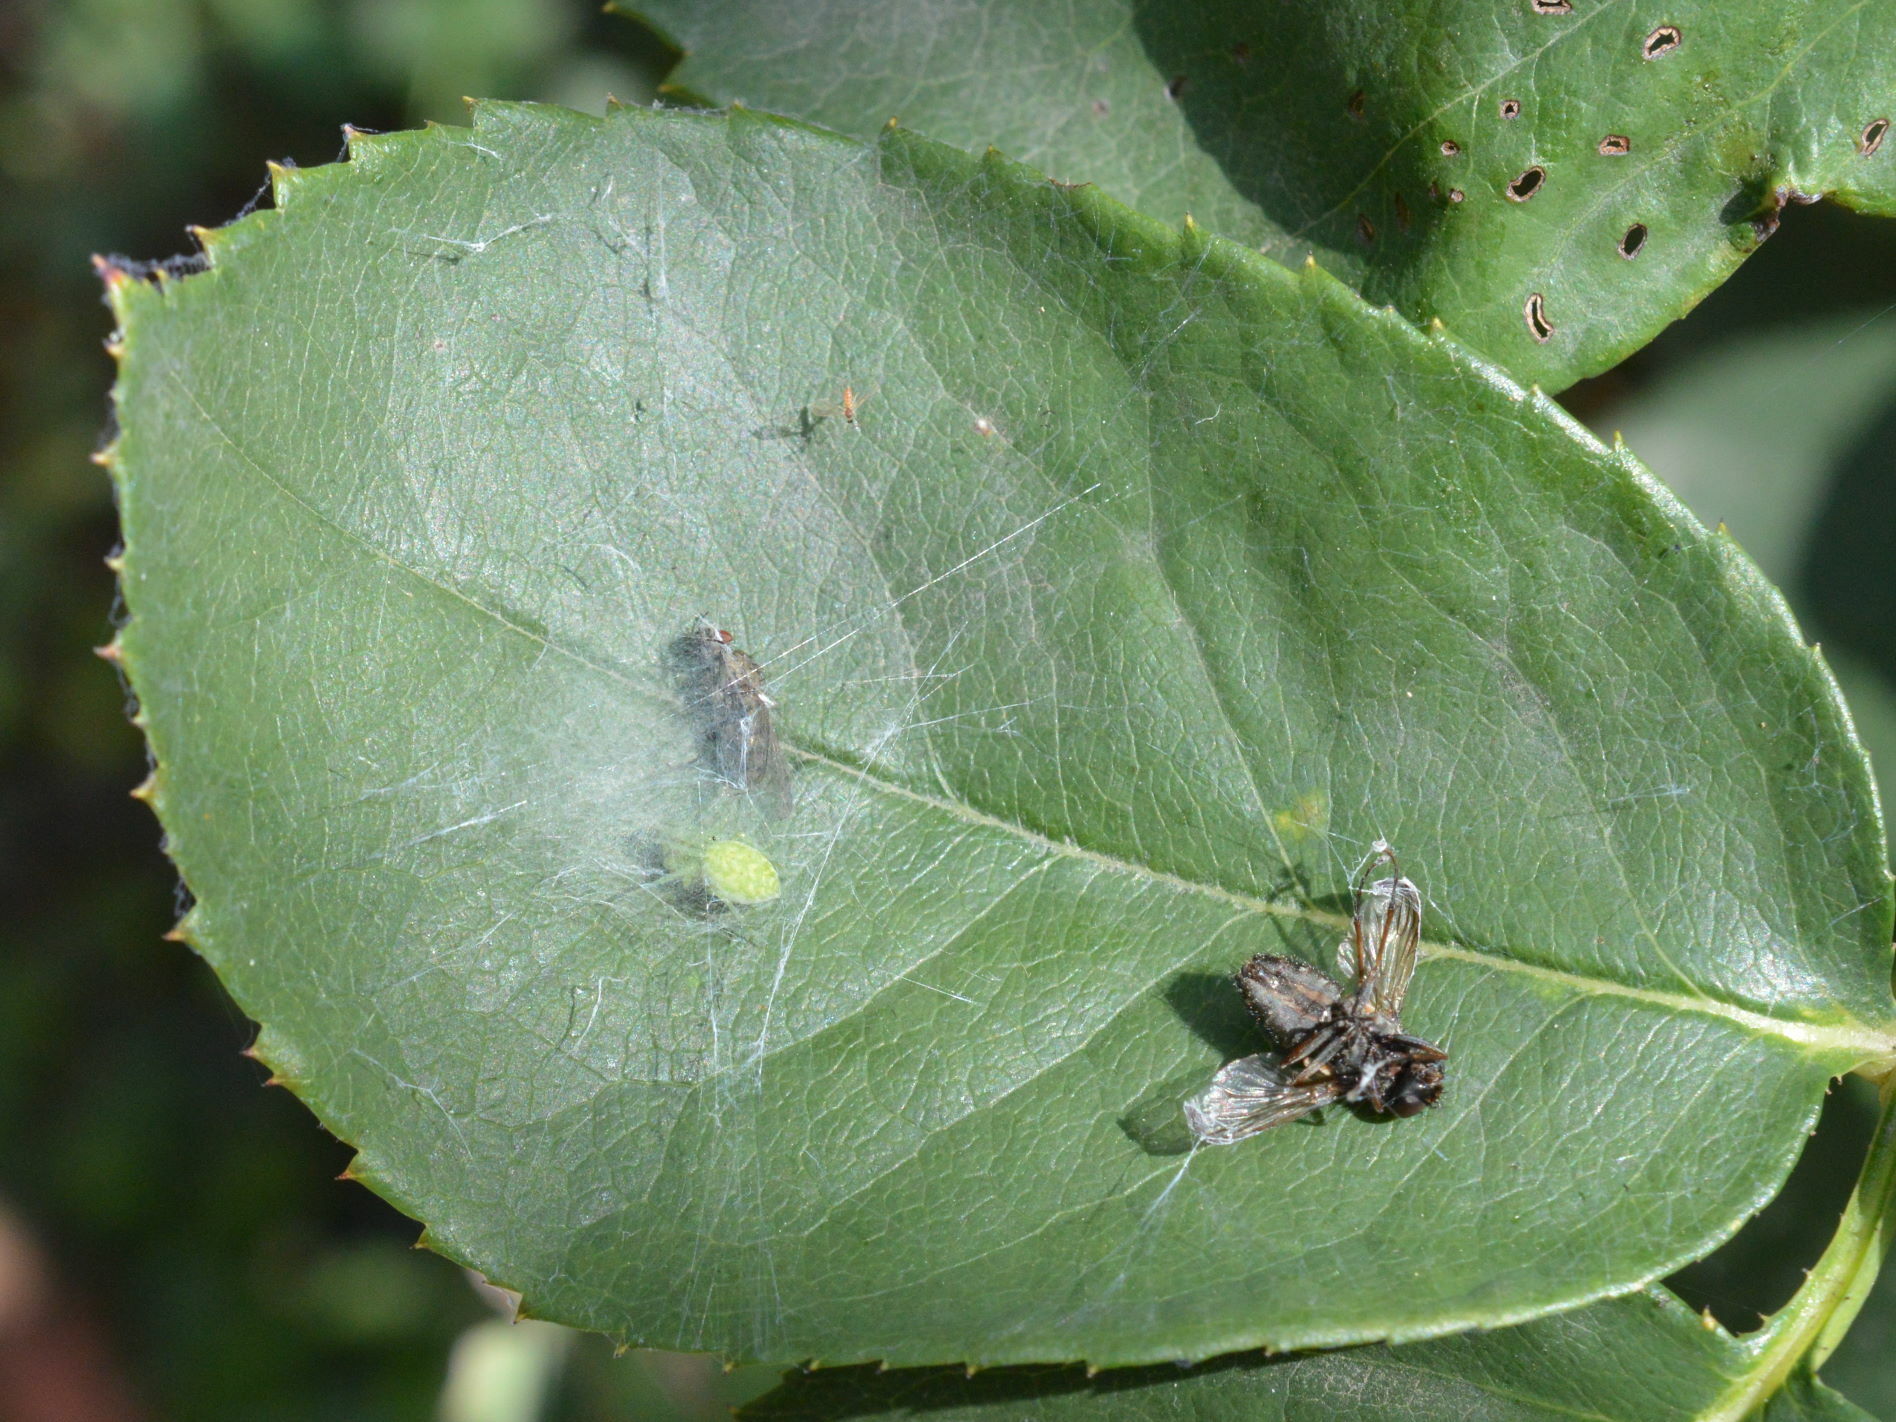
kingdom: Animalia
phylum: Arthropoda
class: Arachnida
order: Araneae
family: Dictynidae
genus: Nigma
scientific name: Nigma walckenaeri
